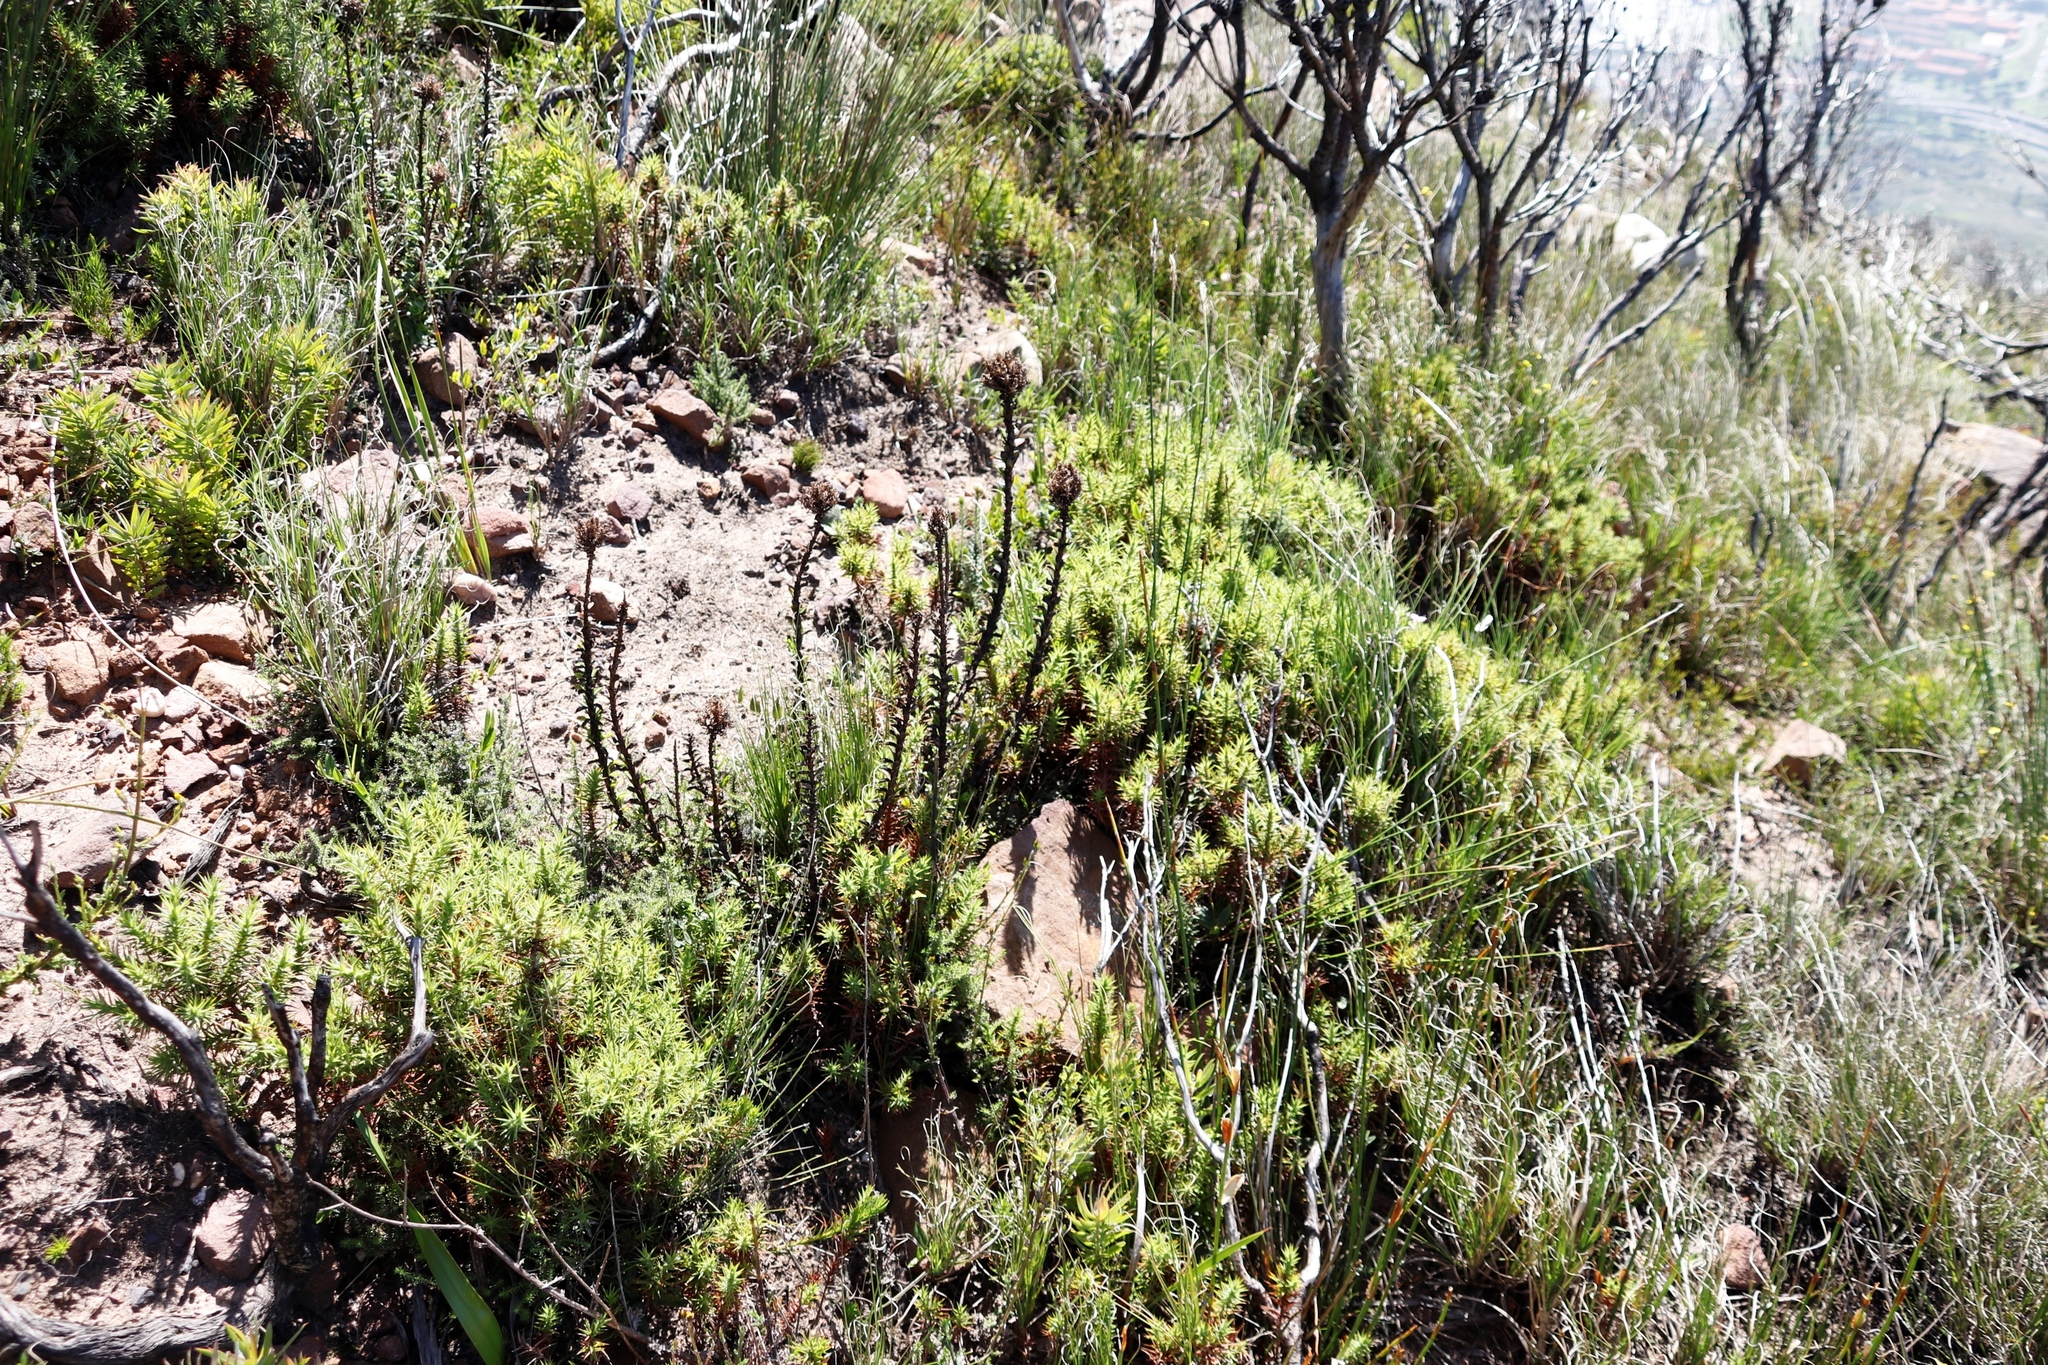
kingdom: Plantae
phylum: Tracheophyta
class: Magnoliopsida
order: Lamiales
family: Scrophulariaceae
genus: Pseudoselago
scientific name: Pseudoselago serrata
